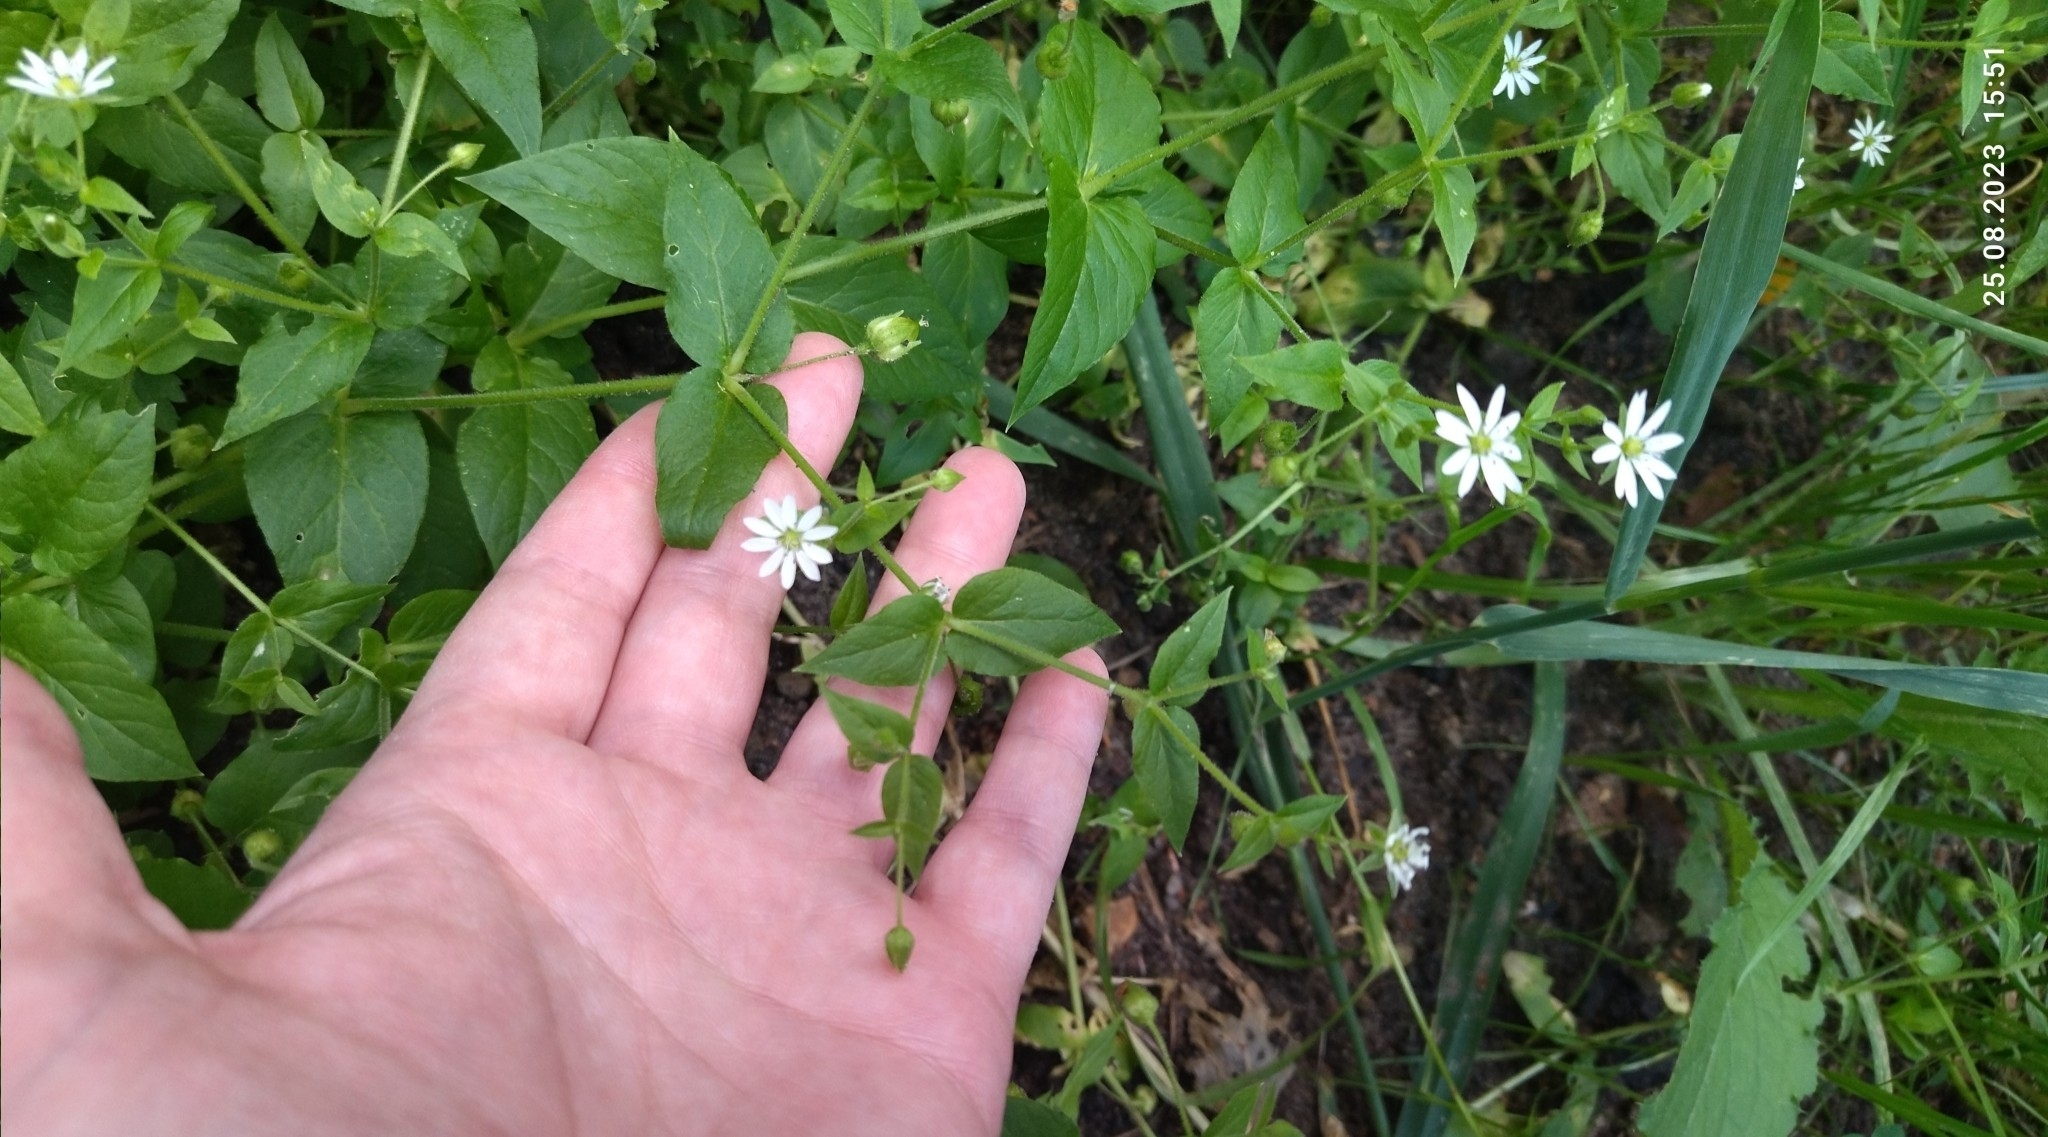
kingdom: Plantae
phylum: Tracheophyta
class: Magnoliopsida
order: Caryophyllales
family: Caryophyllaceae
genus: Stellaria
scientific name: Stellaria aquatica
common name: Water chickweed
